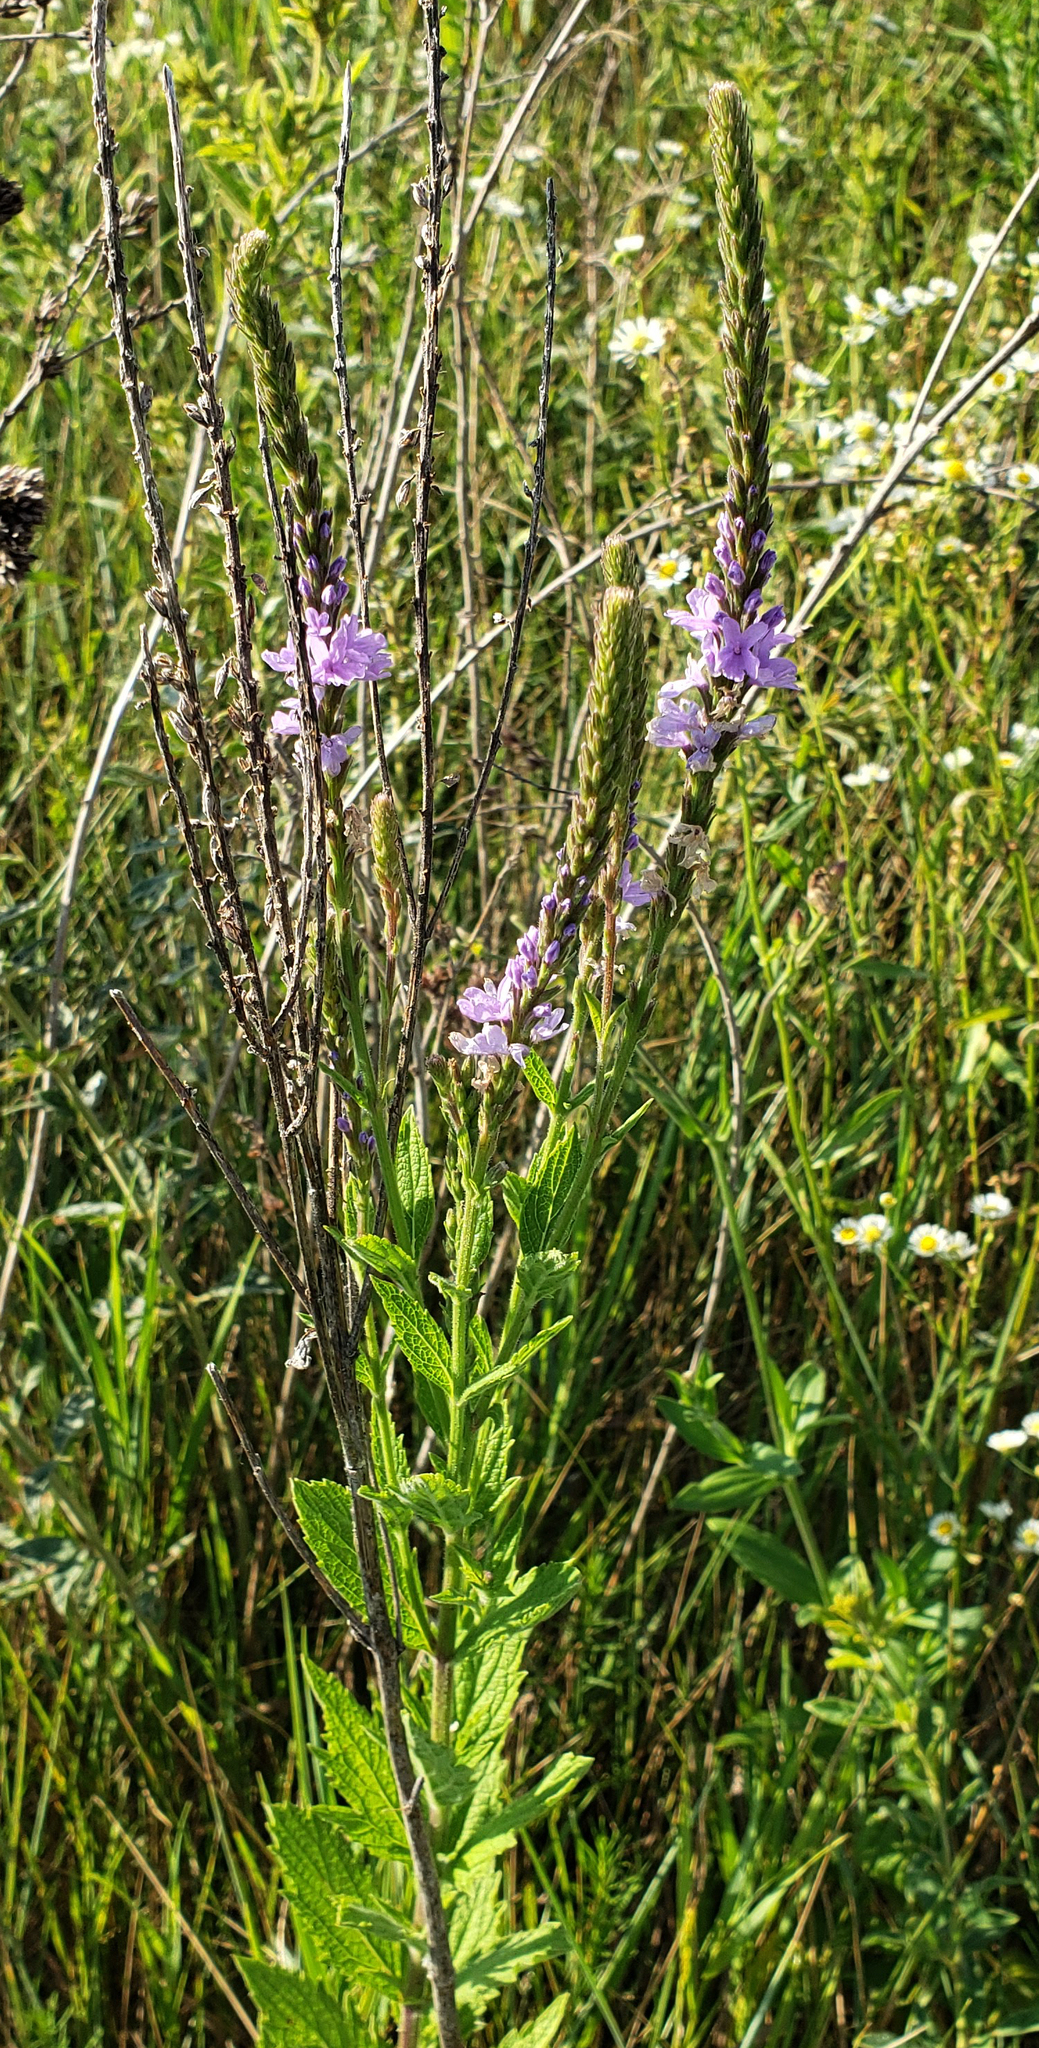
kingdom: Plantae
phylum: Tracheophyta
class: Magnoliopsida
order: Lamiales
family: Verbenaceae
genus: Verbena
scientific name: Verbena stricta
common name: Hoary vervain
